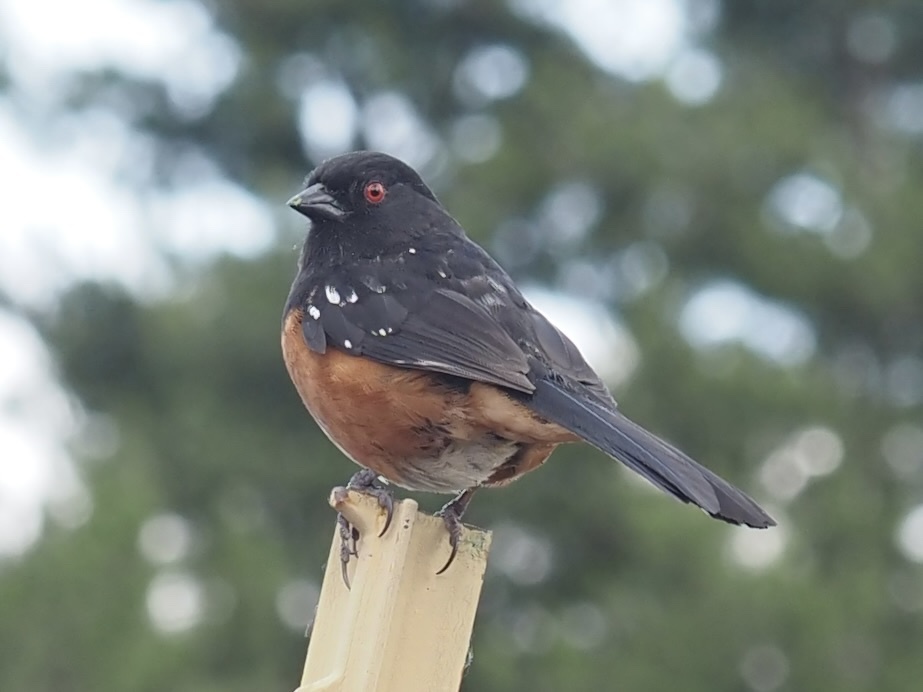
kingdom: Animalia
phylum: Chordata
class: Aves
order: Passeriformes
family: Passerellidae
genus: Pipilo
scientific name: Pipilo maculatus
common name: Spotted towhee
